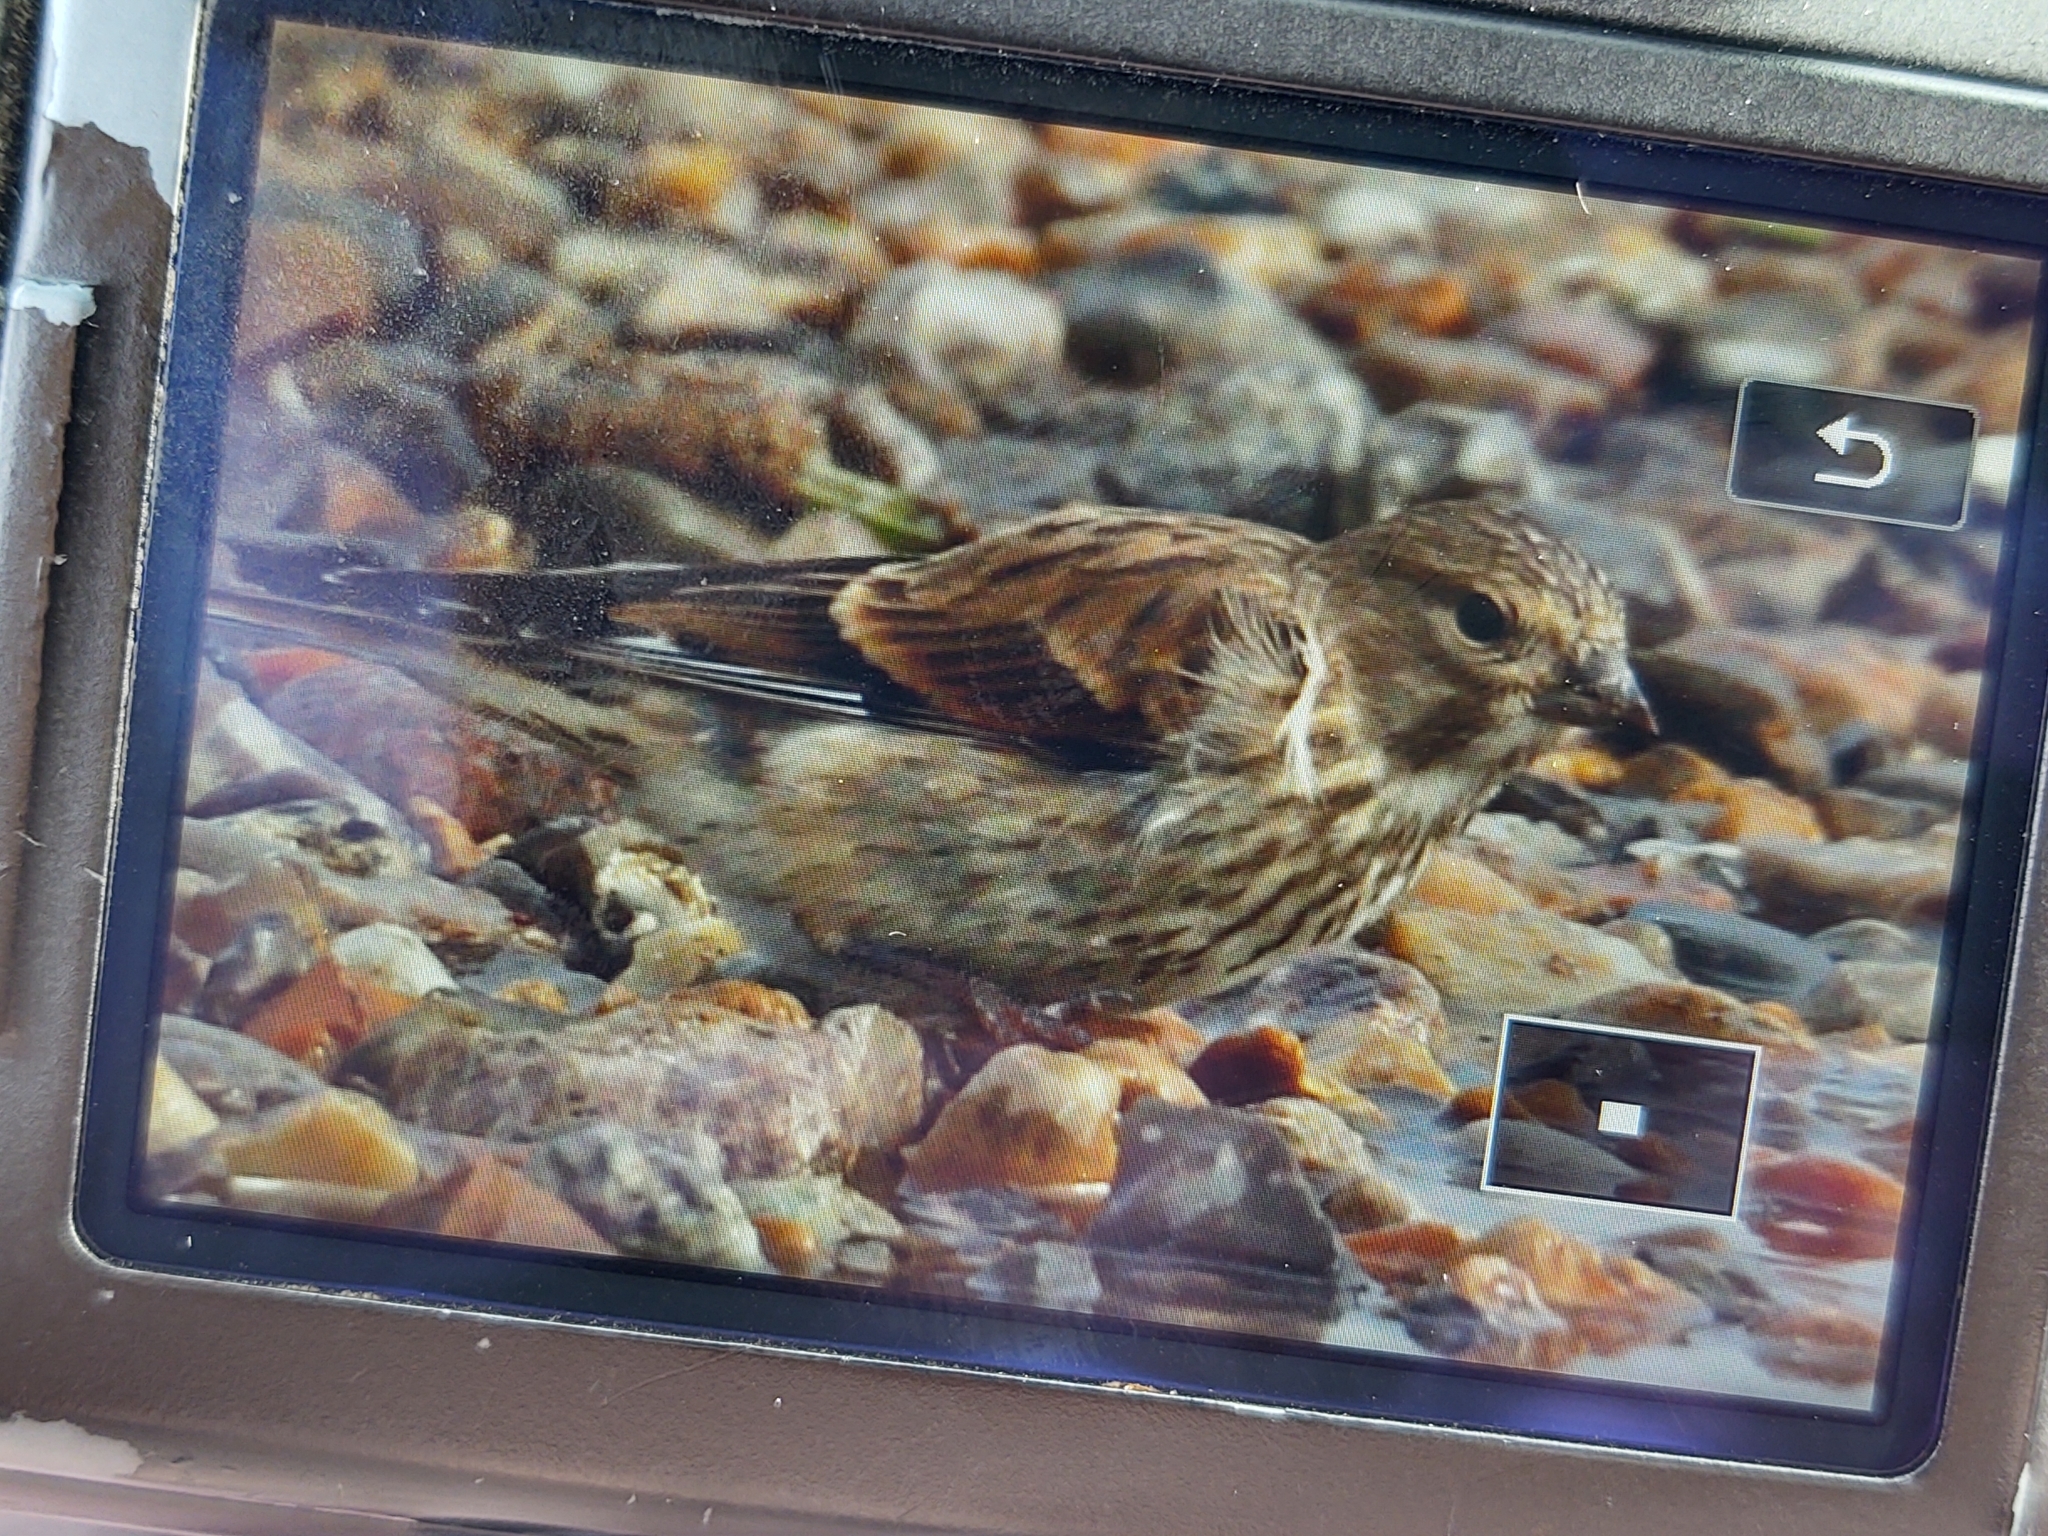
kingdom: Animalia
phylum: Chordata
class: Aves
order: Passeriformes
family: Fringillidae
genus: Linaria
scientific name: Linaria cannabina
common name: Common linnet
